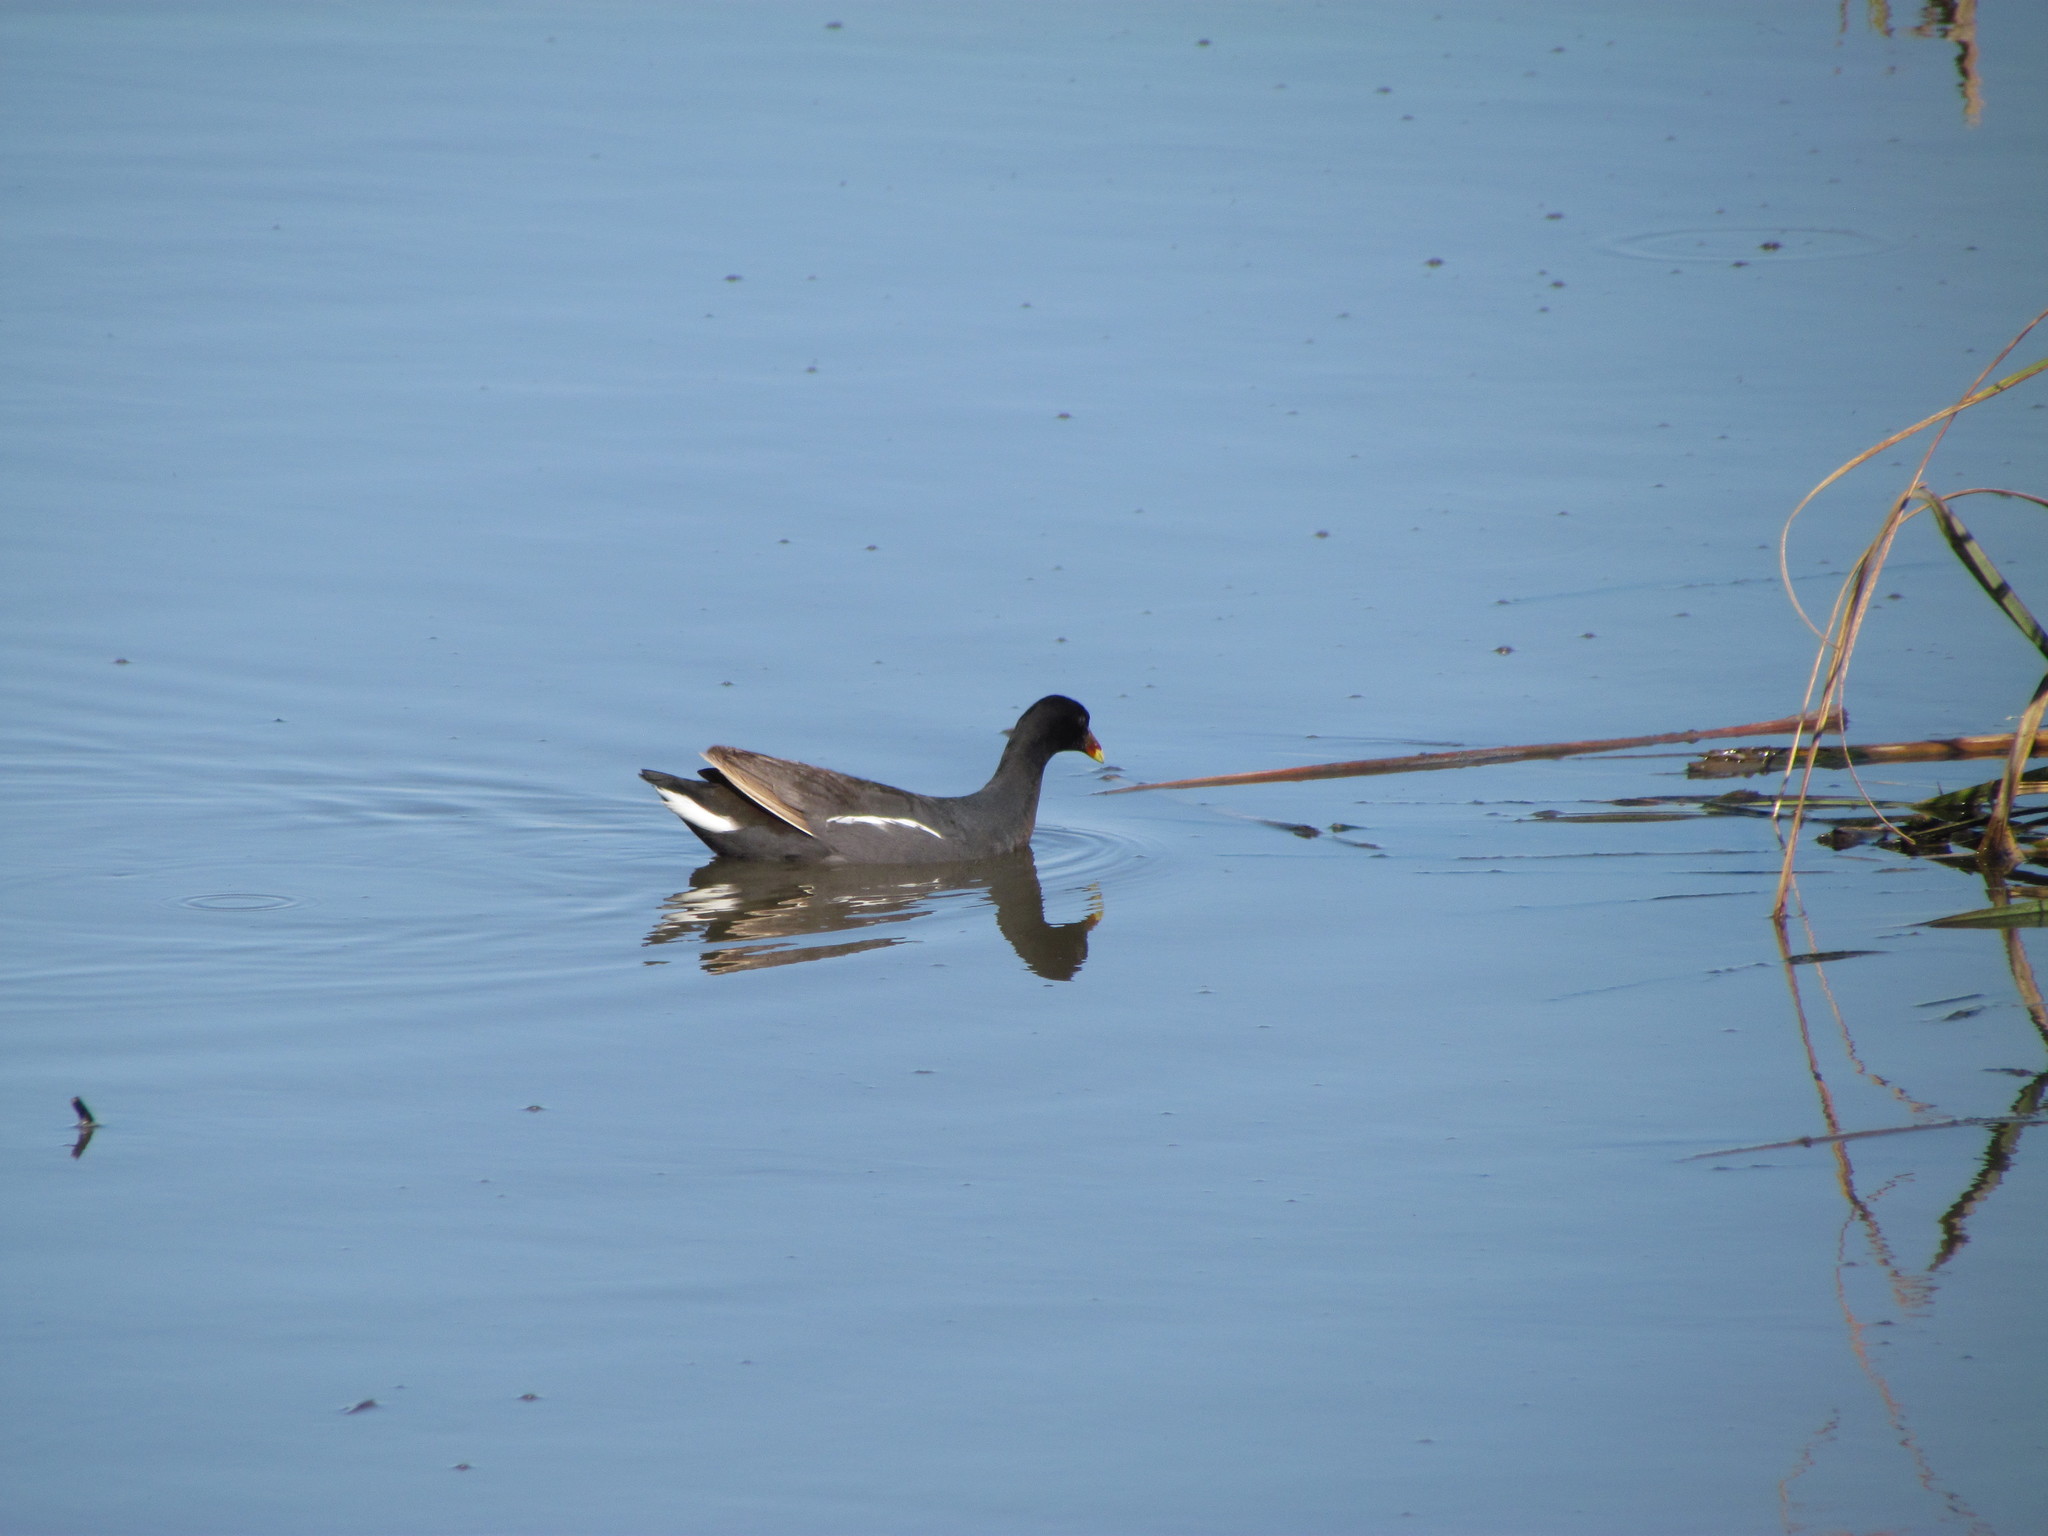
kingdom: Animalia
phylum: Chordata
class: Aves
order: Gruiformes
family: Rallidae
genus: Gallinula
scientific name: Gallinula chloropus
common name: Common moorhen
